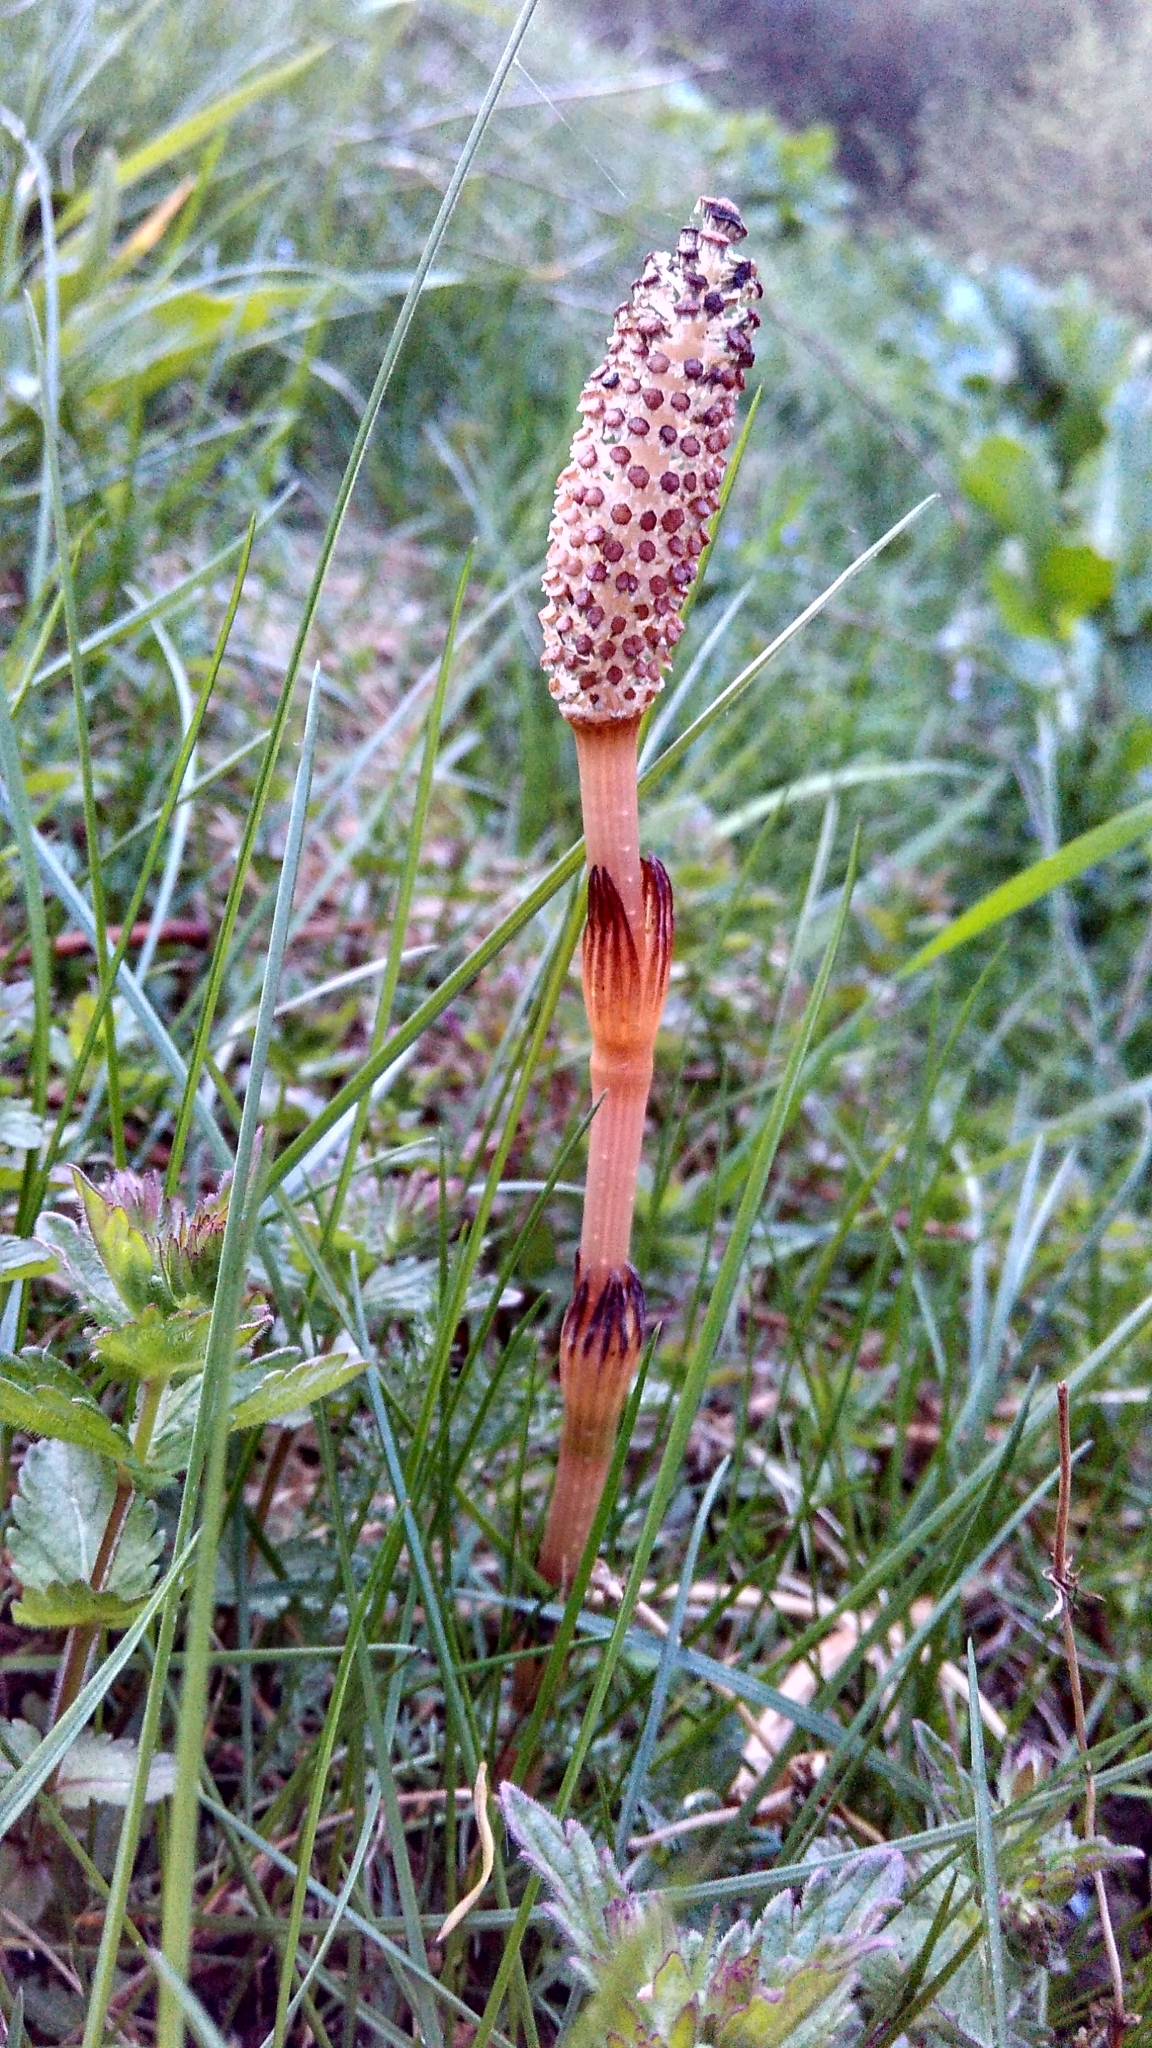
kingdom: Plantae
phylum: Tracheophyta
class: Polypodiopsida
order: Equisetales
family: Equisetaceae
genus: Equisetum
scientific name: Equisetum arvense
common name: Field horsetail
